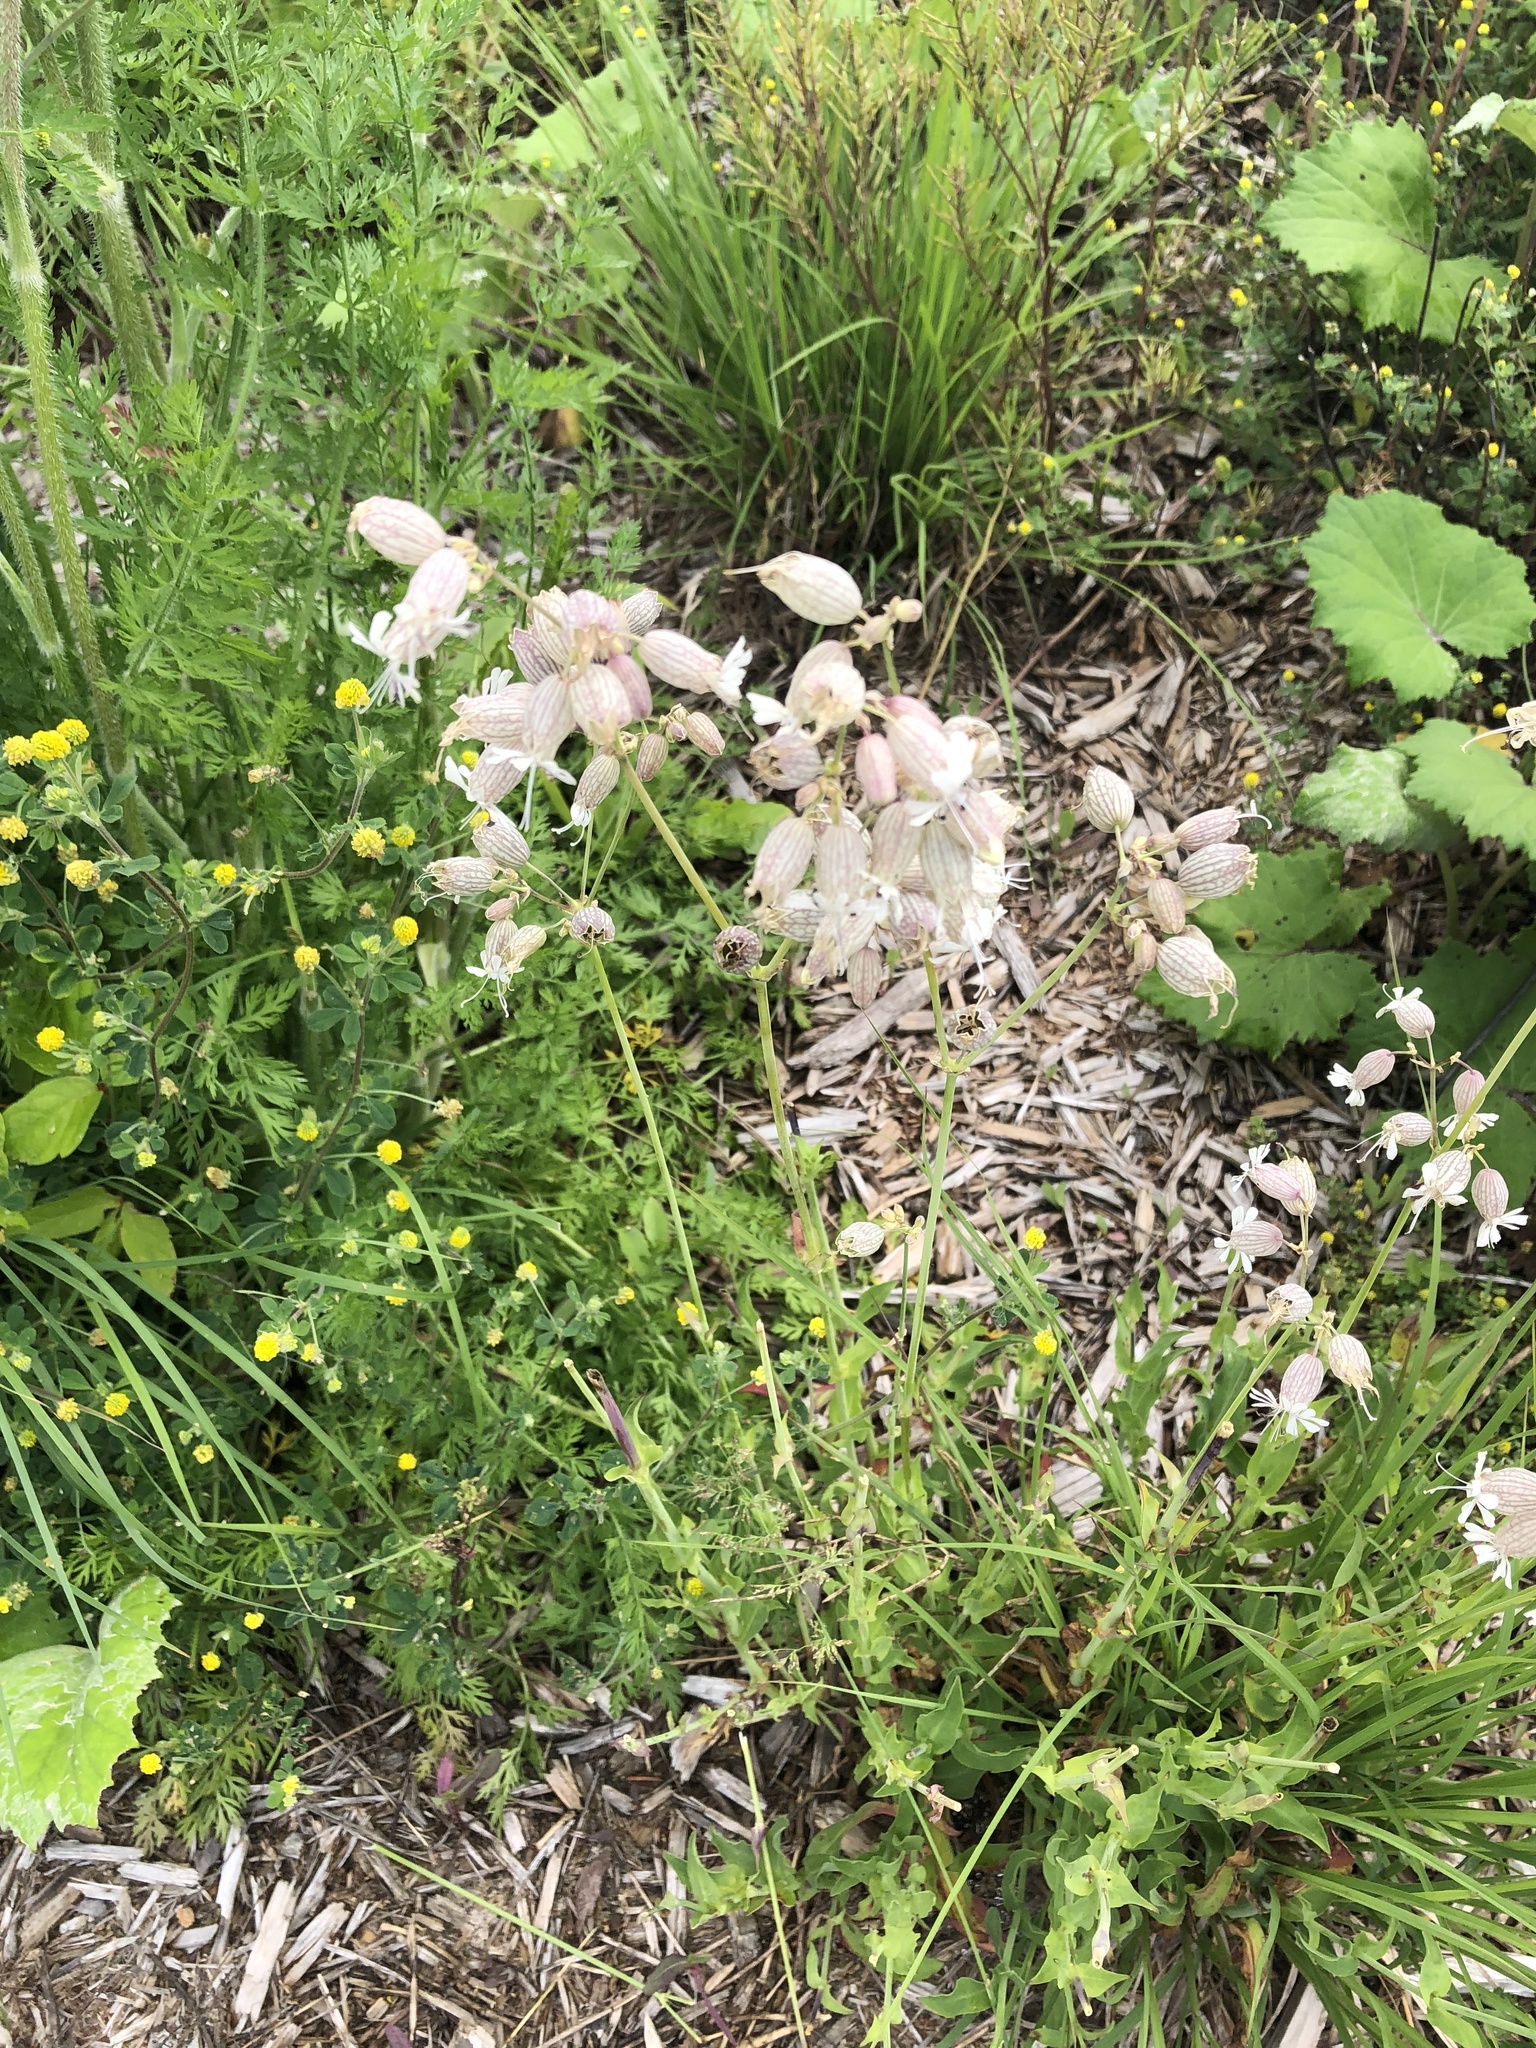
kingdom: Plantae
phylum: Tracheophyta
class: Magnoliopsida
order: Caryophyllales
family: Caryophyllaceae
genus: Silene
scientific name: Silene vulgaris
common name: Bladder campion
